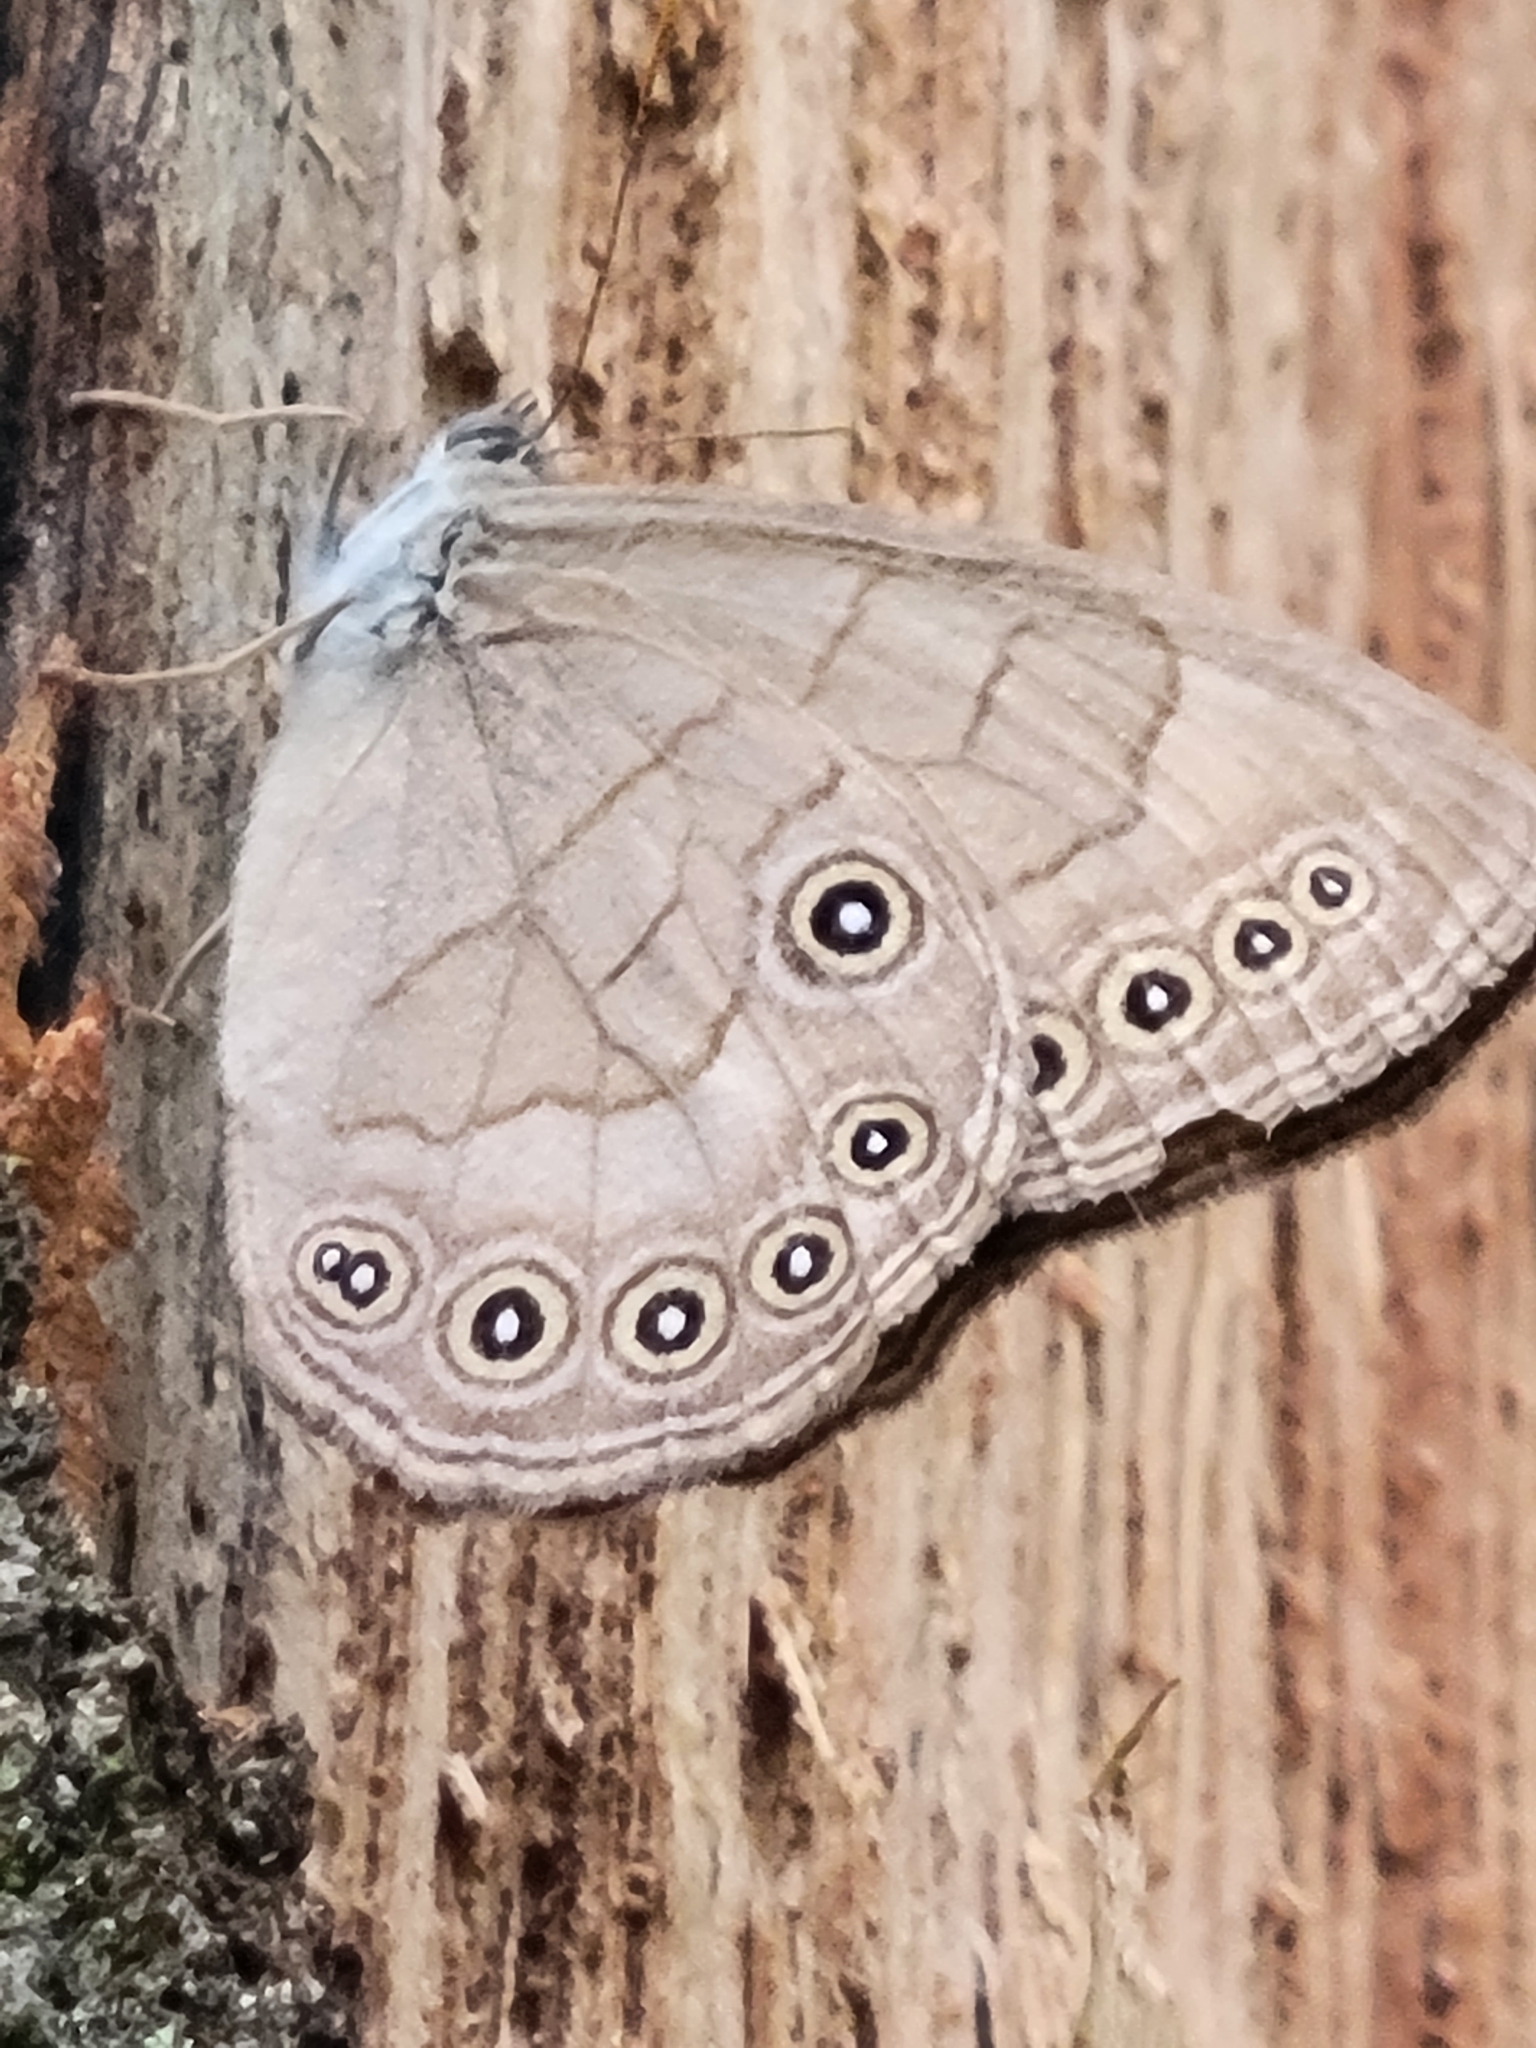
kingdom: Animalia
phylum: Arthropoda
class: Insecta
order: Lepidoptera
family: Nymphalidae
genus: Lethe
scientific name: Lethe eurydice
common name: Eyed brown
